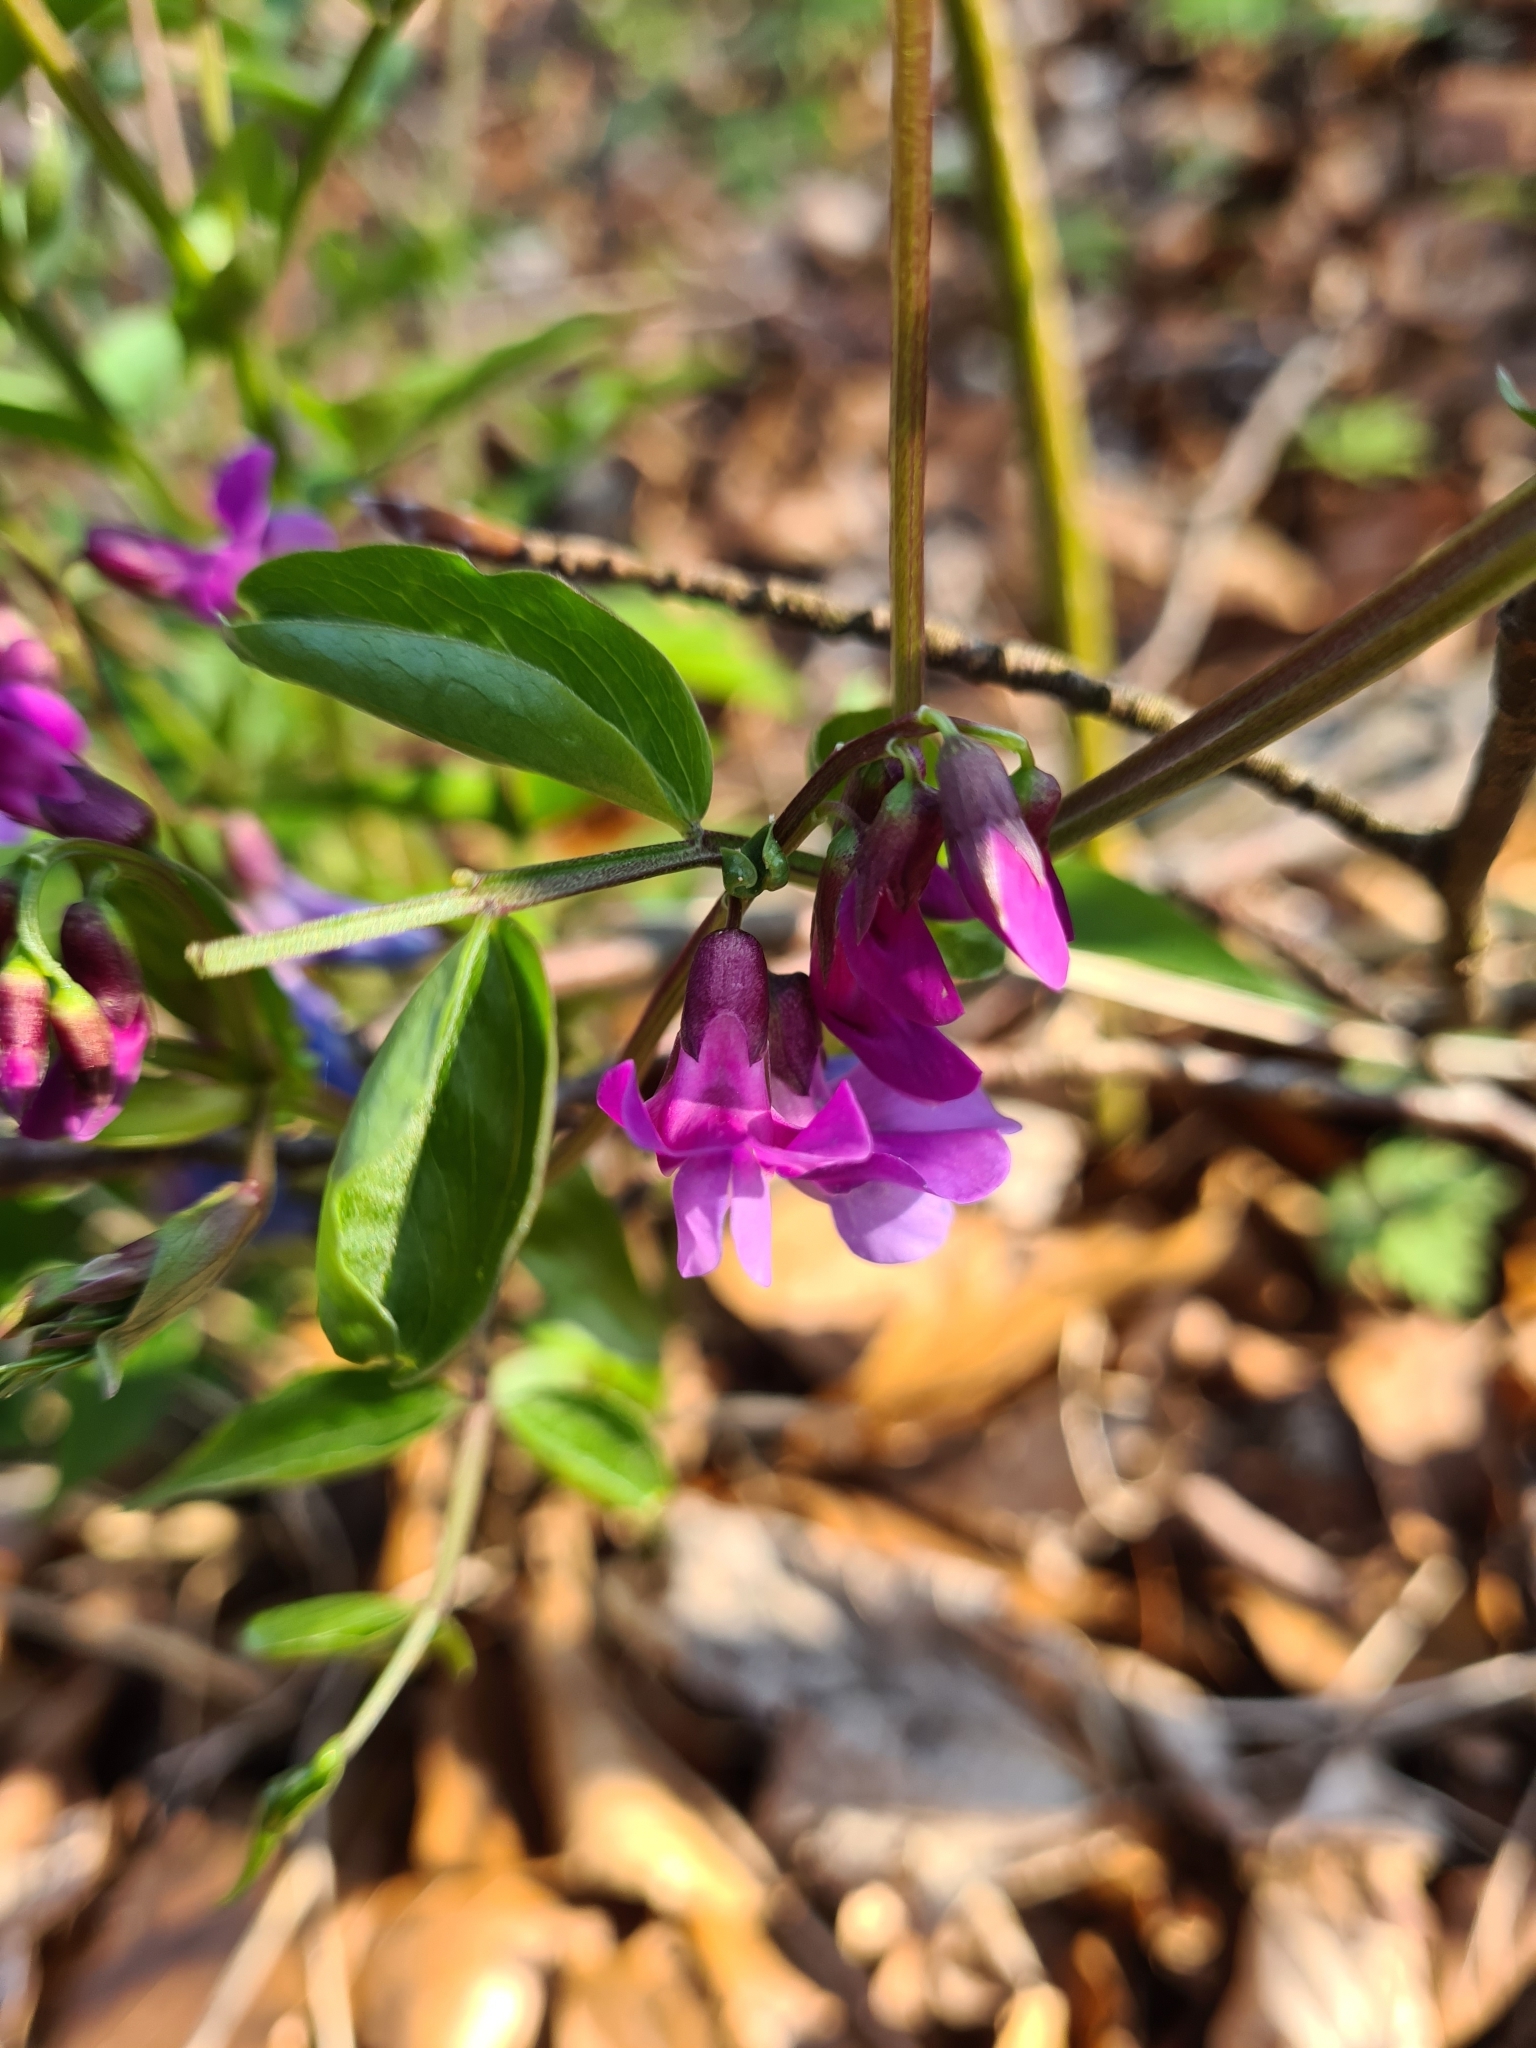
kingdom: Plantae
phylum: Tracheophyta
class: Magnoliopsida
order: Fabales
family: Fabaceae
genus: Lathyrus
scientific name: Lathyrus vernus
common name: Spring pea
